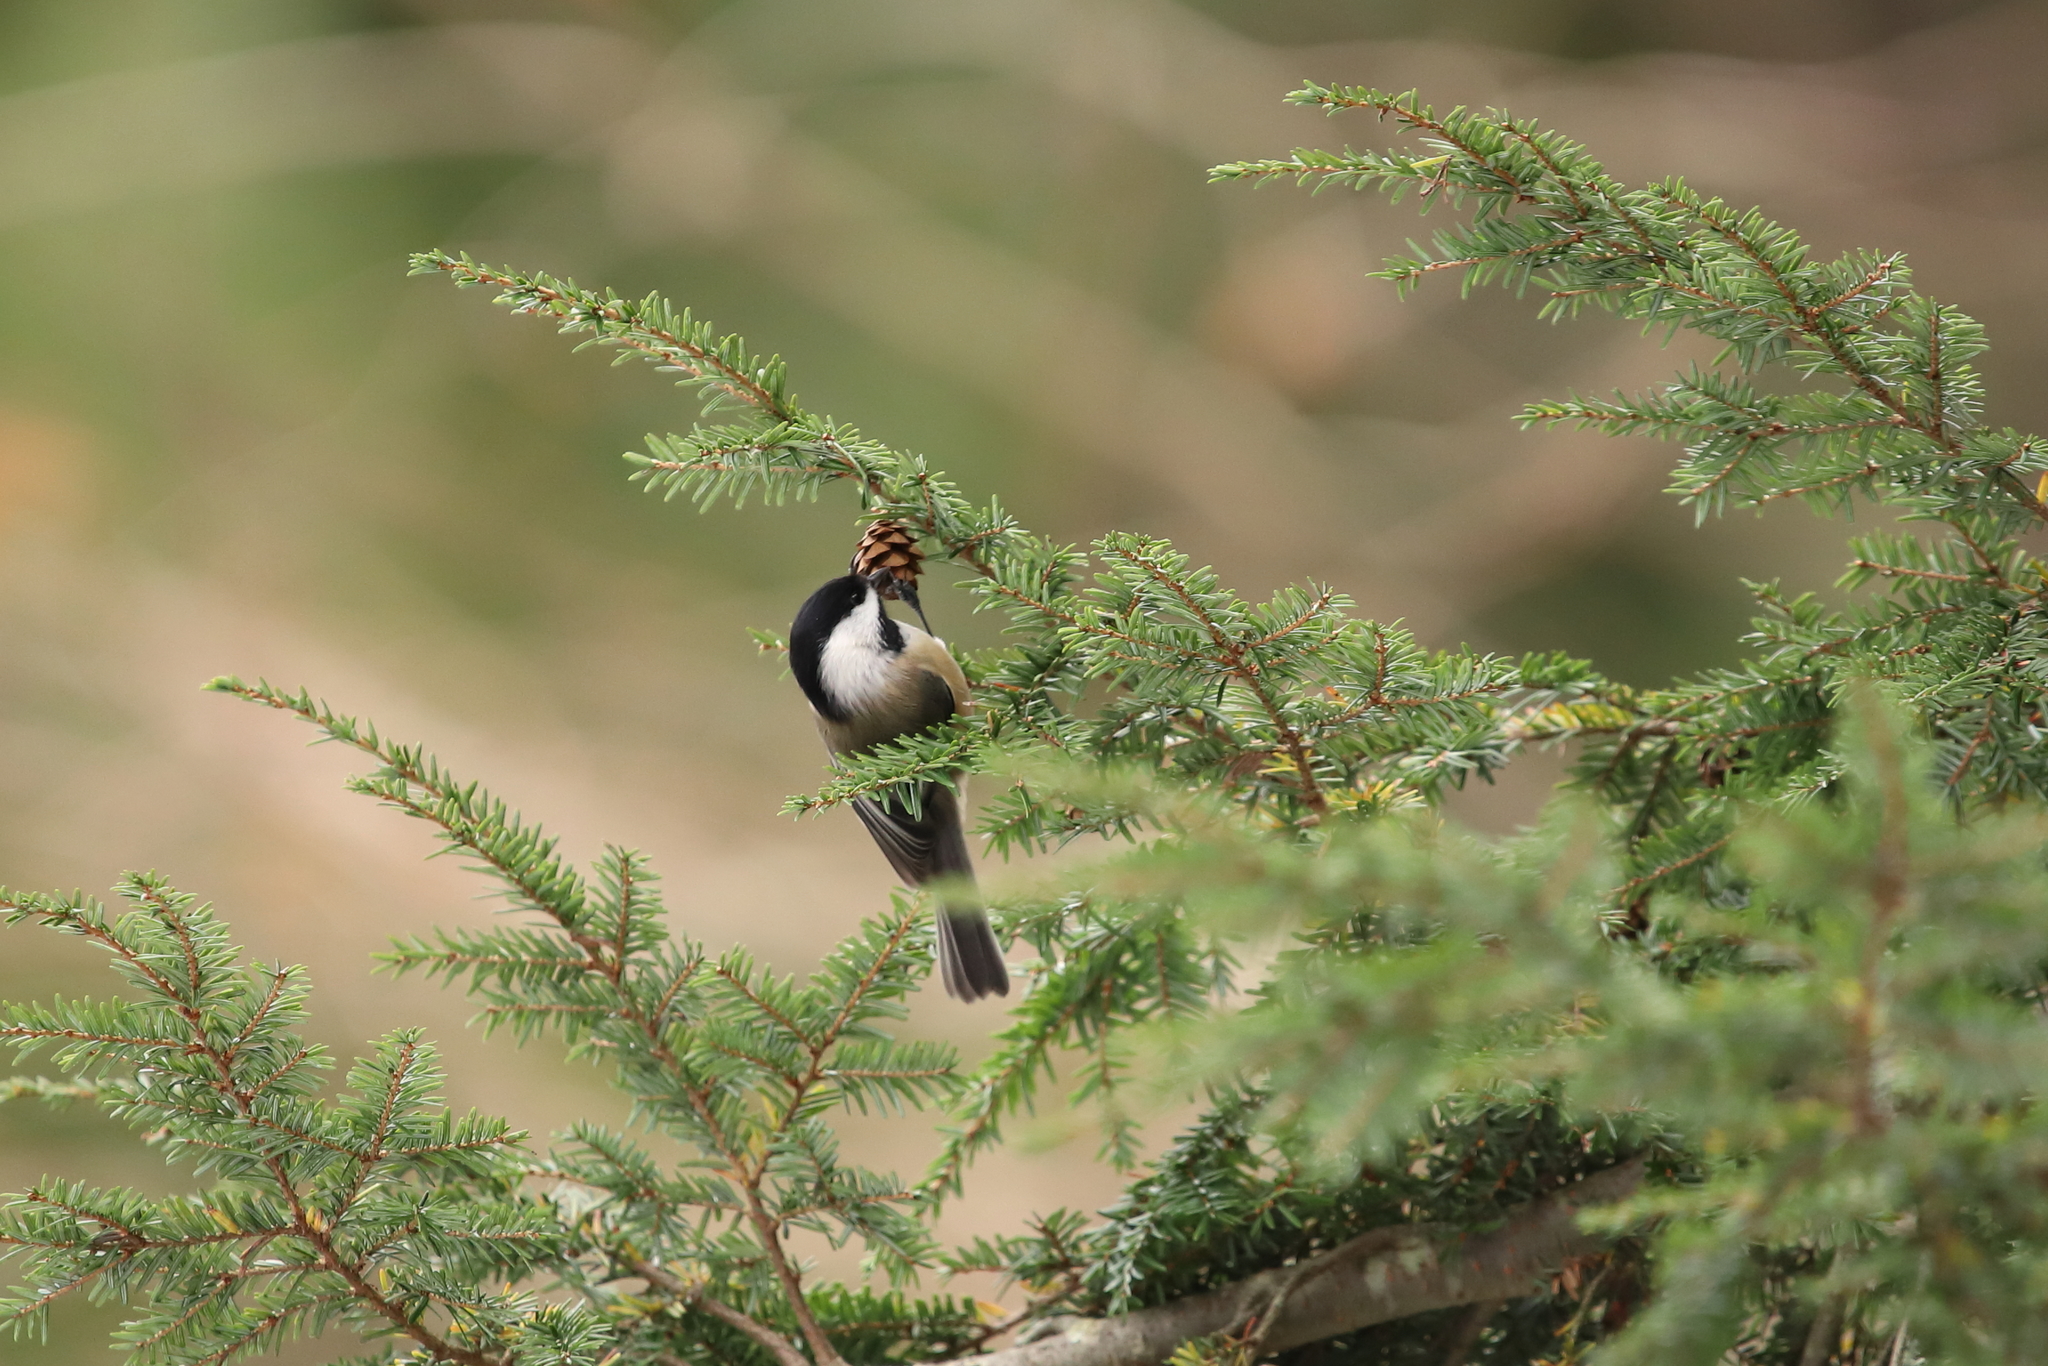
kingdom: Animalia
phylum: Chordata
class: Aves
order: Passeriformes
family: Paridae
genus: Poecile
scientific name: Poecile atricapillus
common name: Black-capped chickadee
